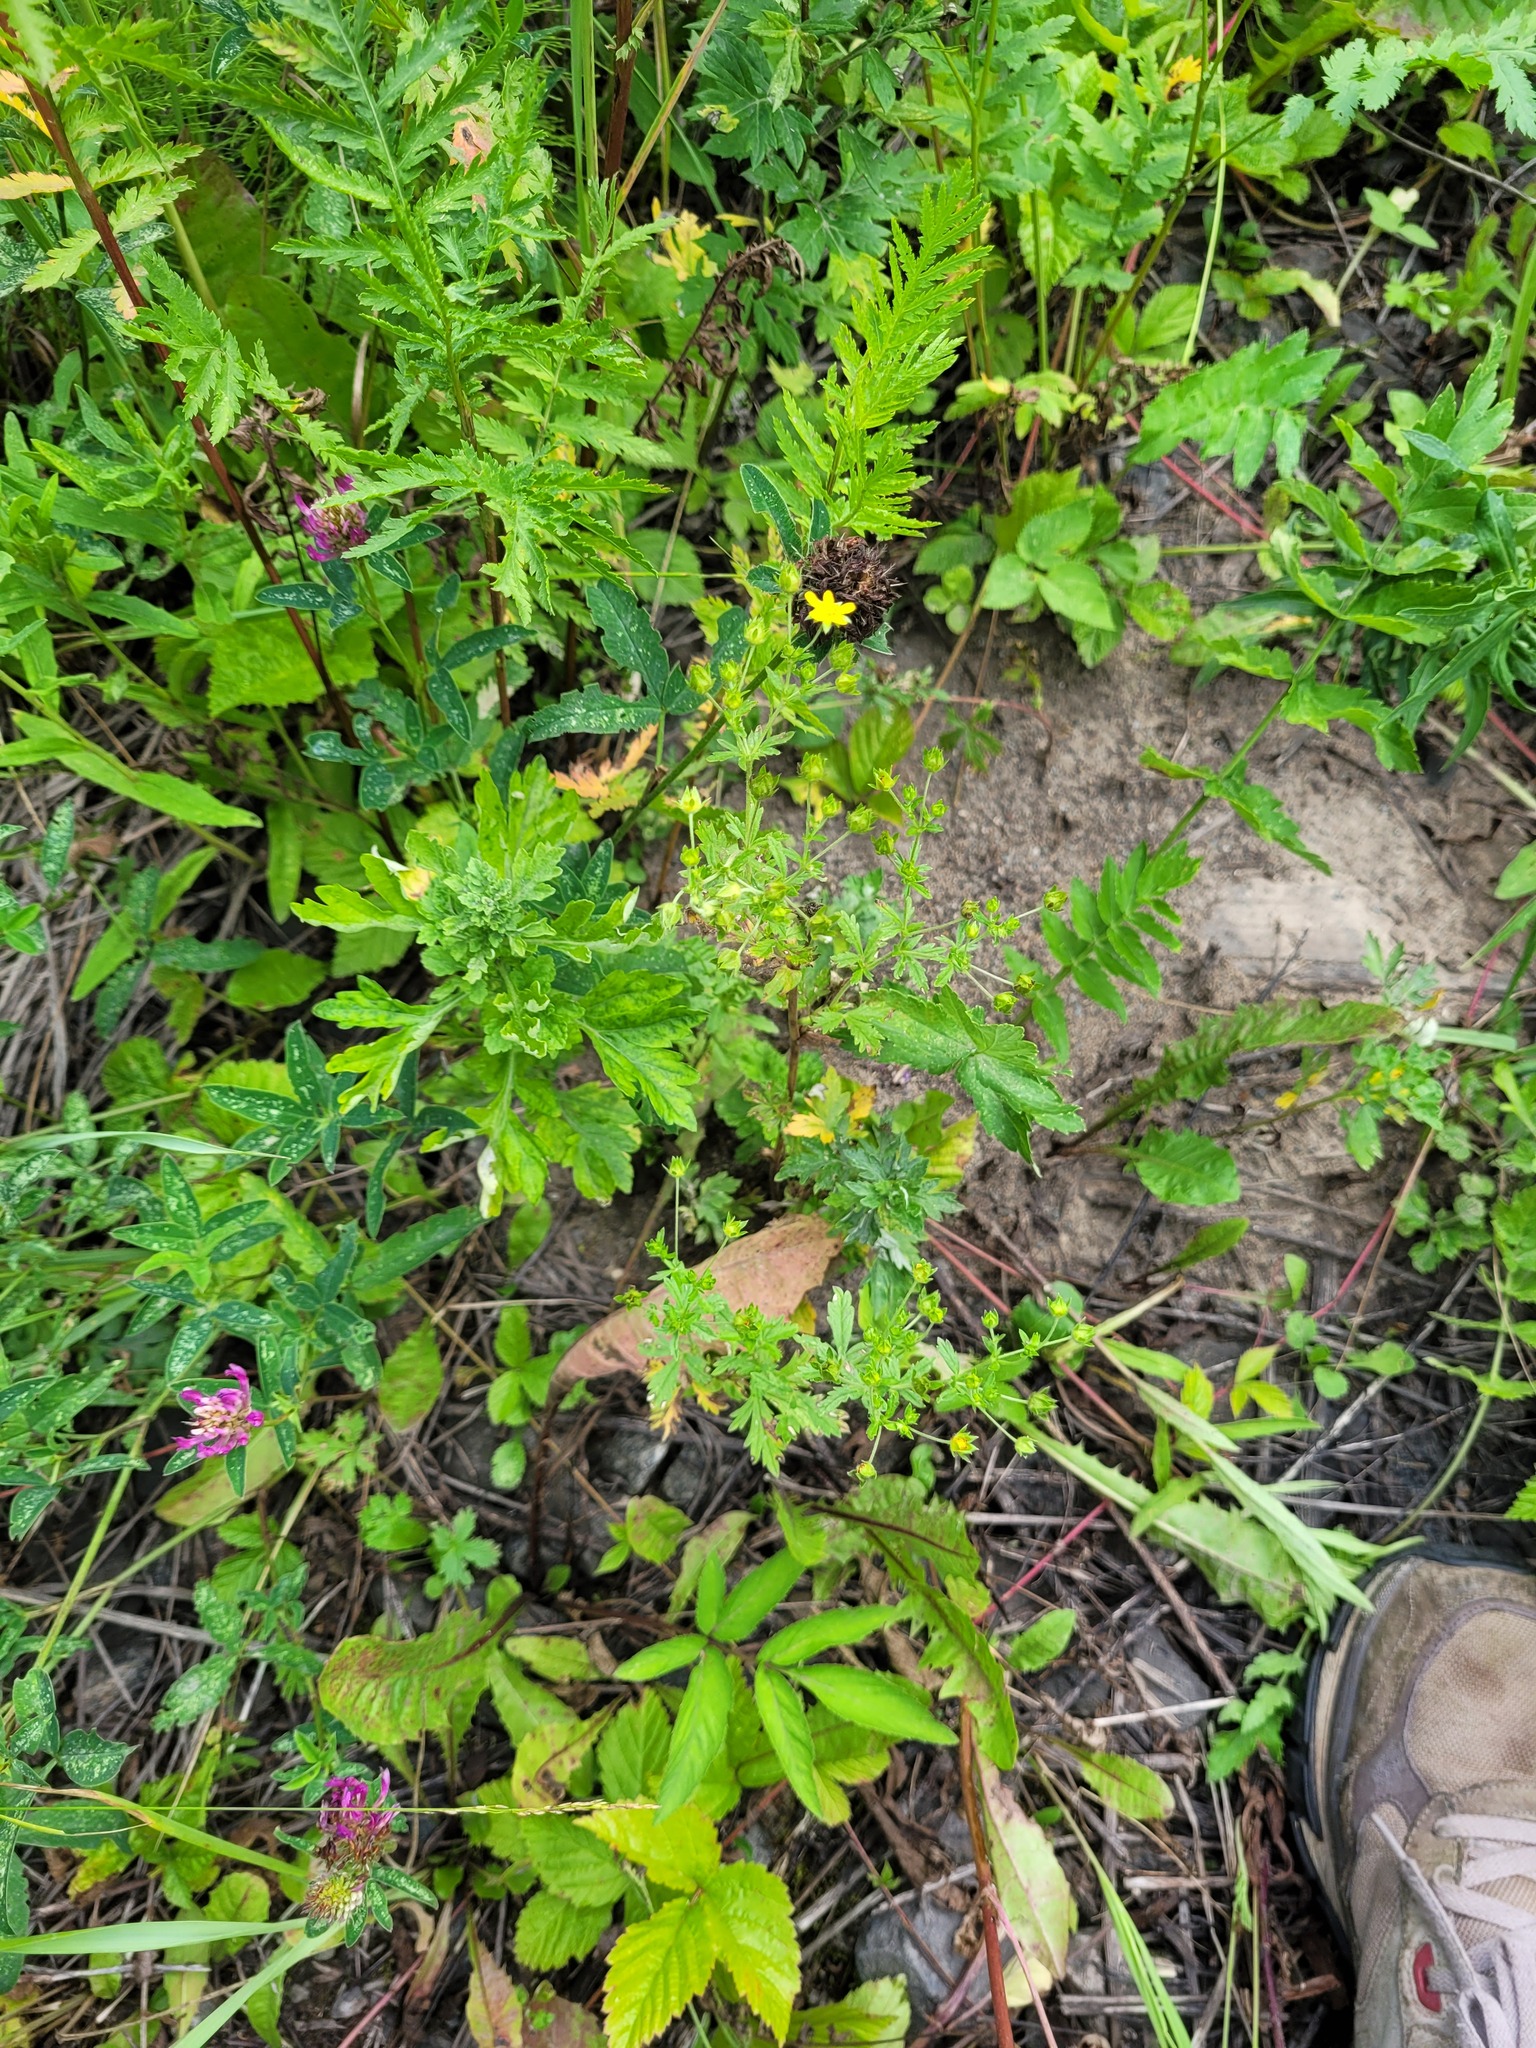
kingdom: Plantae
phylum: Tracheophyta
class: Magnoliopsida
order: Rosales
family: Rosaceae
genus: Potentilla
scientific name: Potentilla intermedia
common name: Downy cinquefoil
